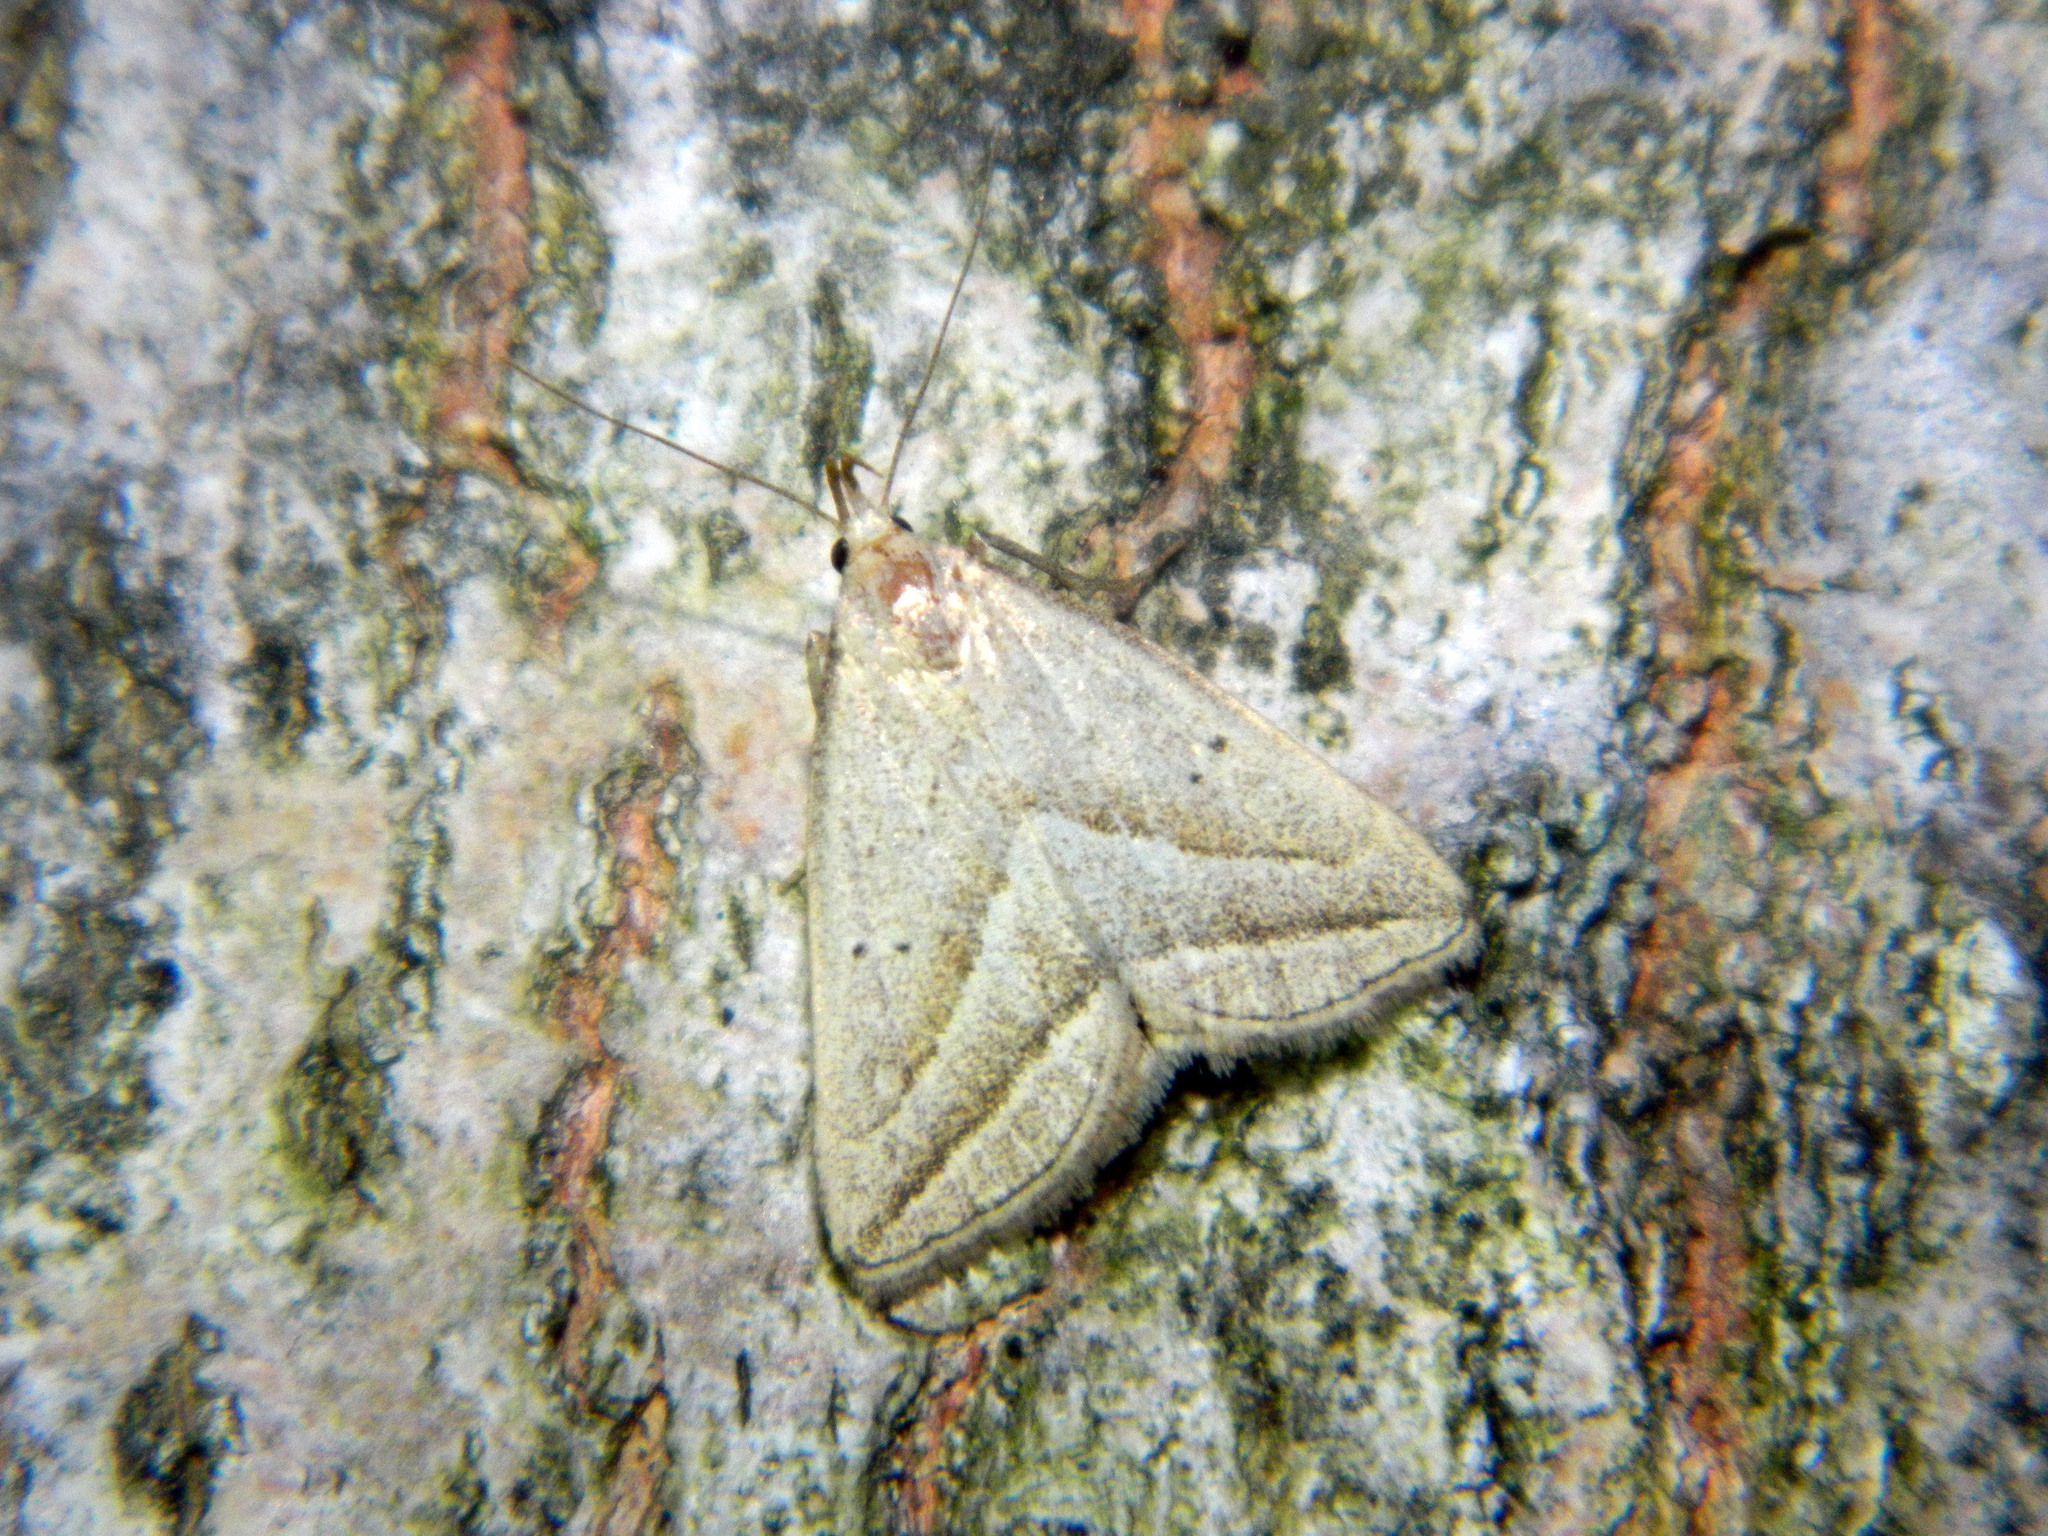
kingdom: Animalia
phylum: Arthropoda
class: Insecta
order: Lepidoptera
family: Erebidae
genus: Macrochilo
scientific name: Macrochilo absorptalis
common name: Slant-lined owlet
